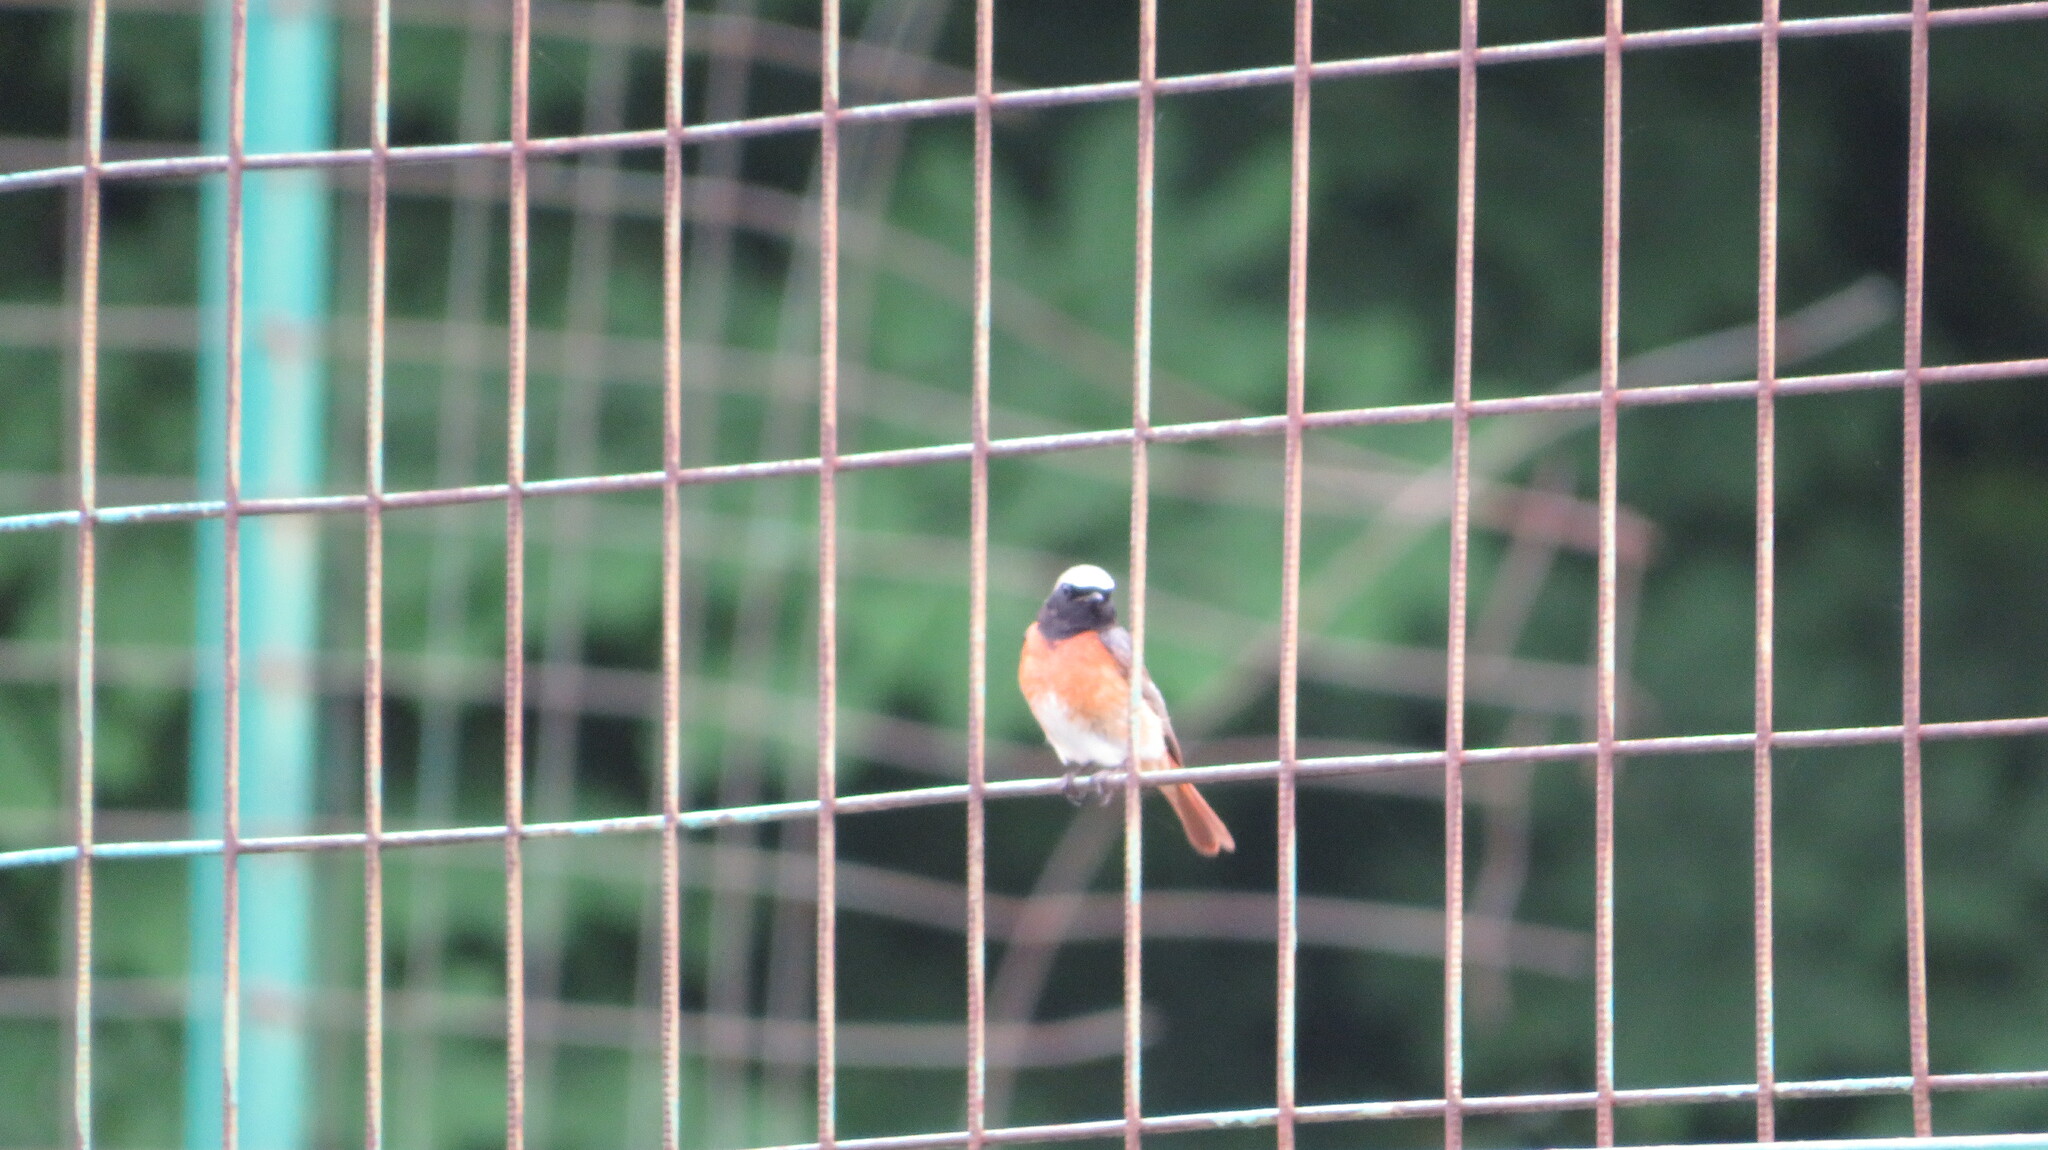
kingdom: Animalia
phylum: Chordata
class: Aves
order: Passeriformes
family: Muscicapidae
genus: Phoenicurus
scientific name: Phoenicurus phoenicurus
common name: Common redstart
